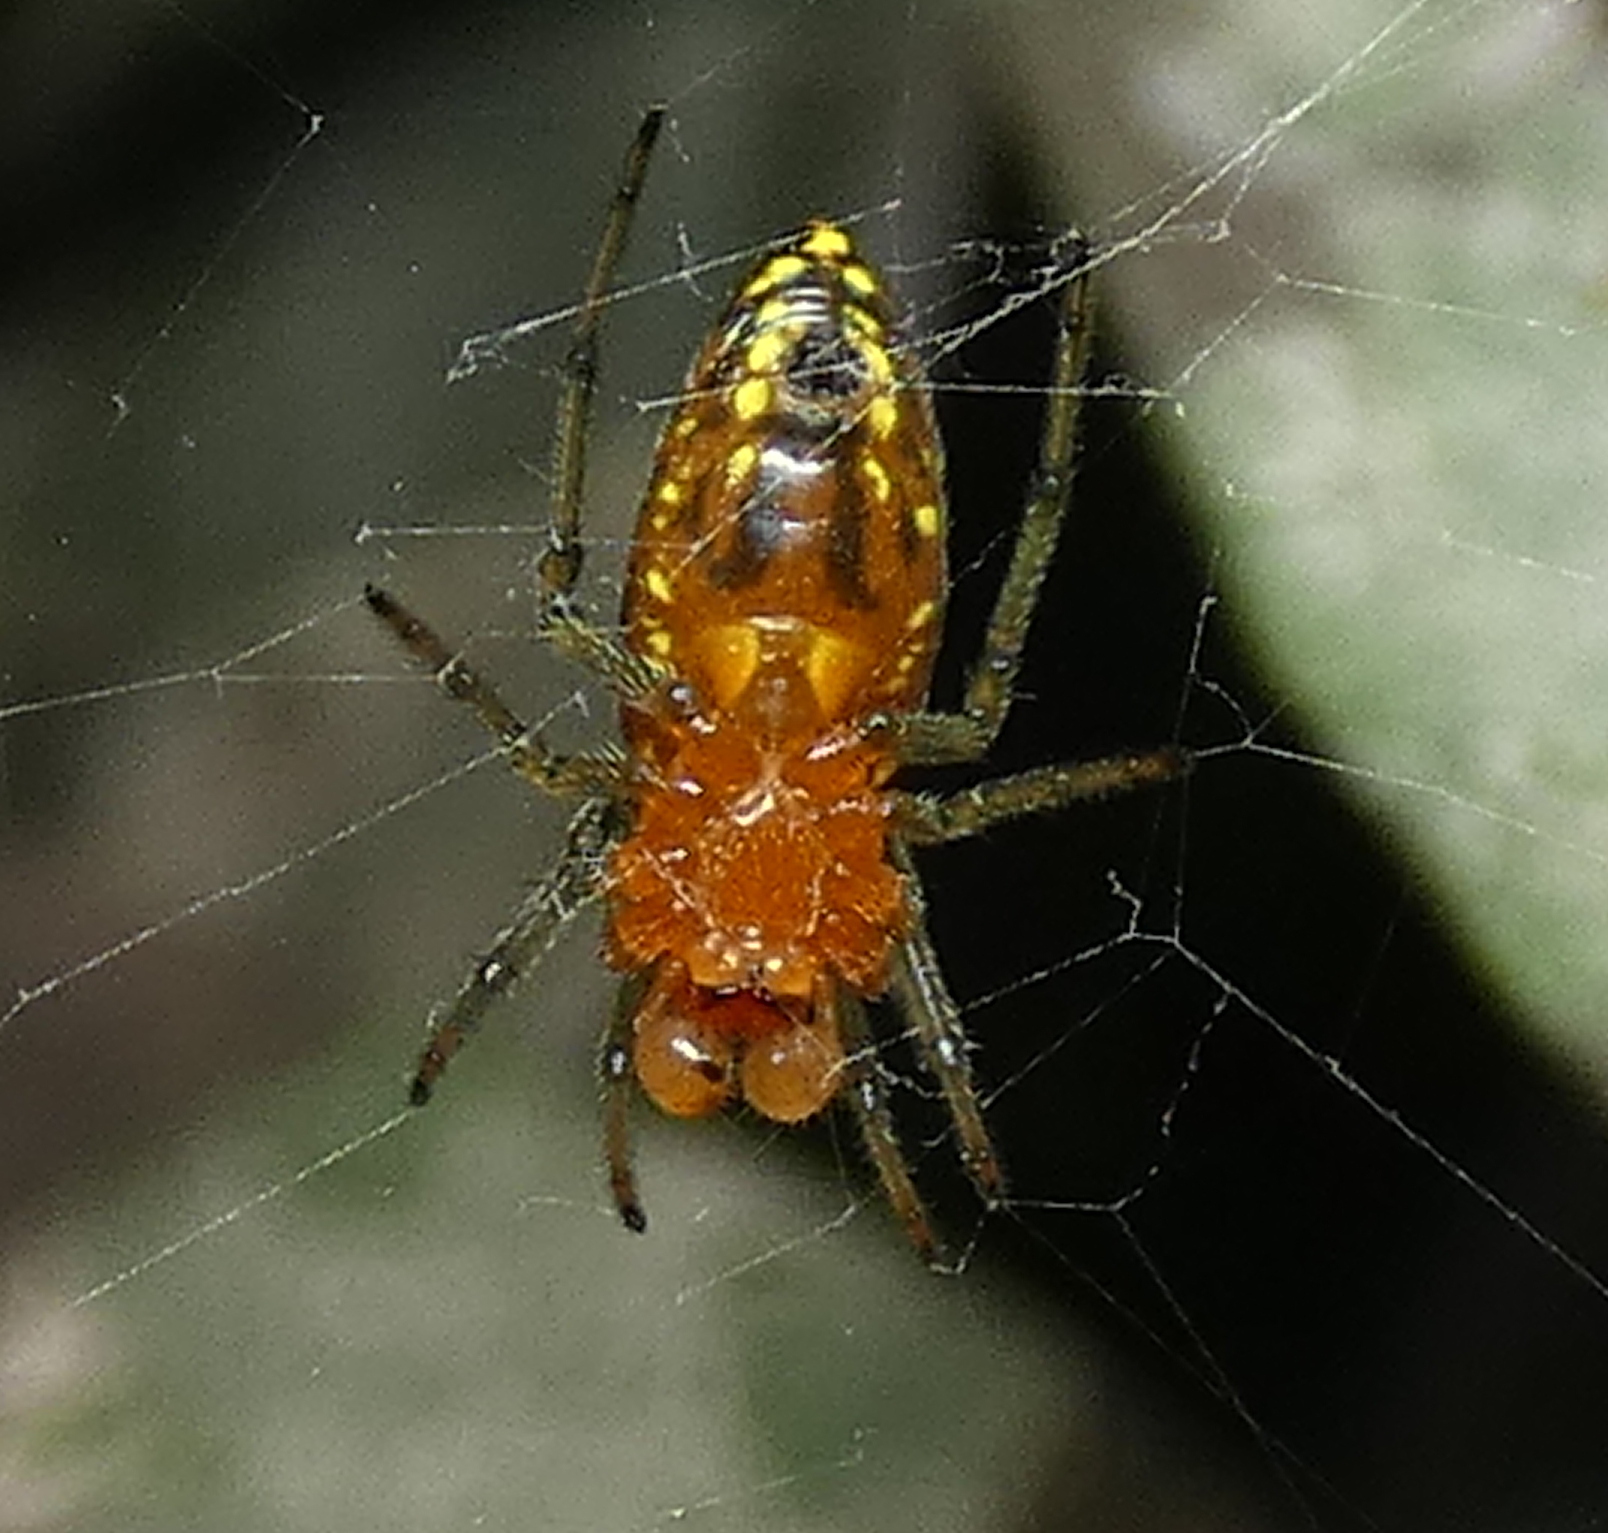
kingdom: Animalia
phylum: Arthropoda
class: Arachnida
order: Araneae
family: Araneidae
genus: Alpaida
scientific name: Alpaida bicornuta
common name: Orb weavers
